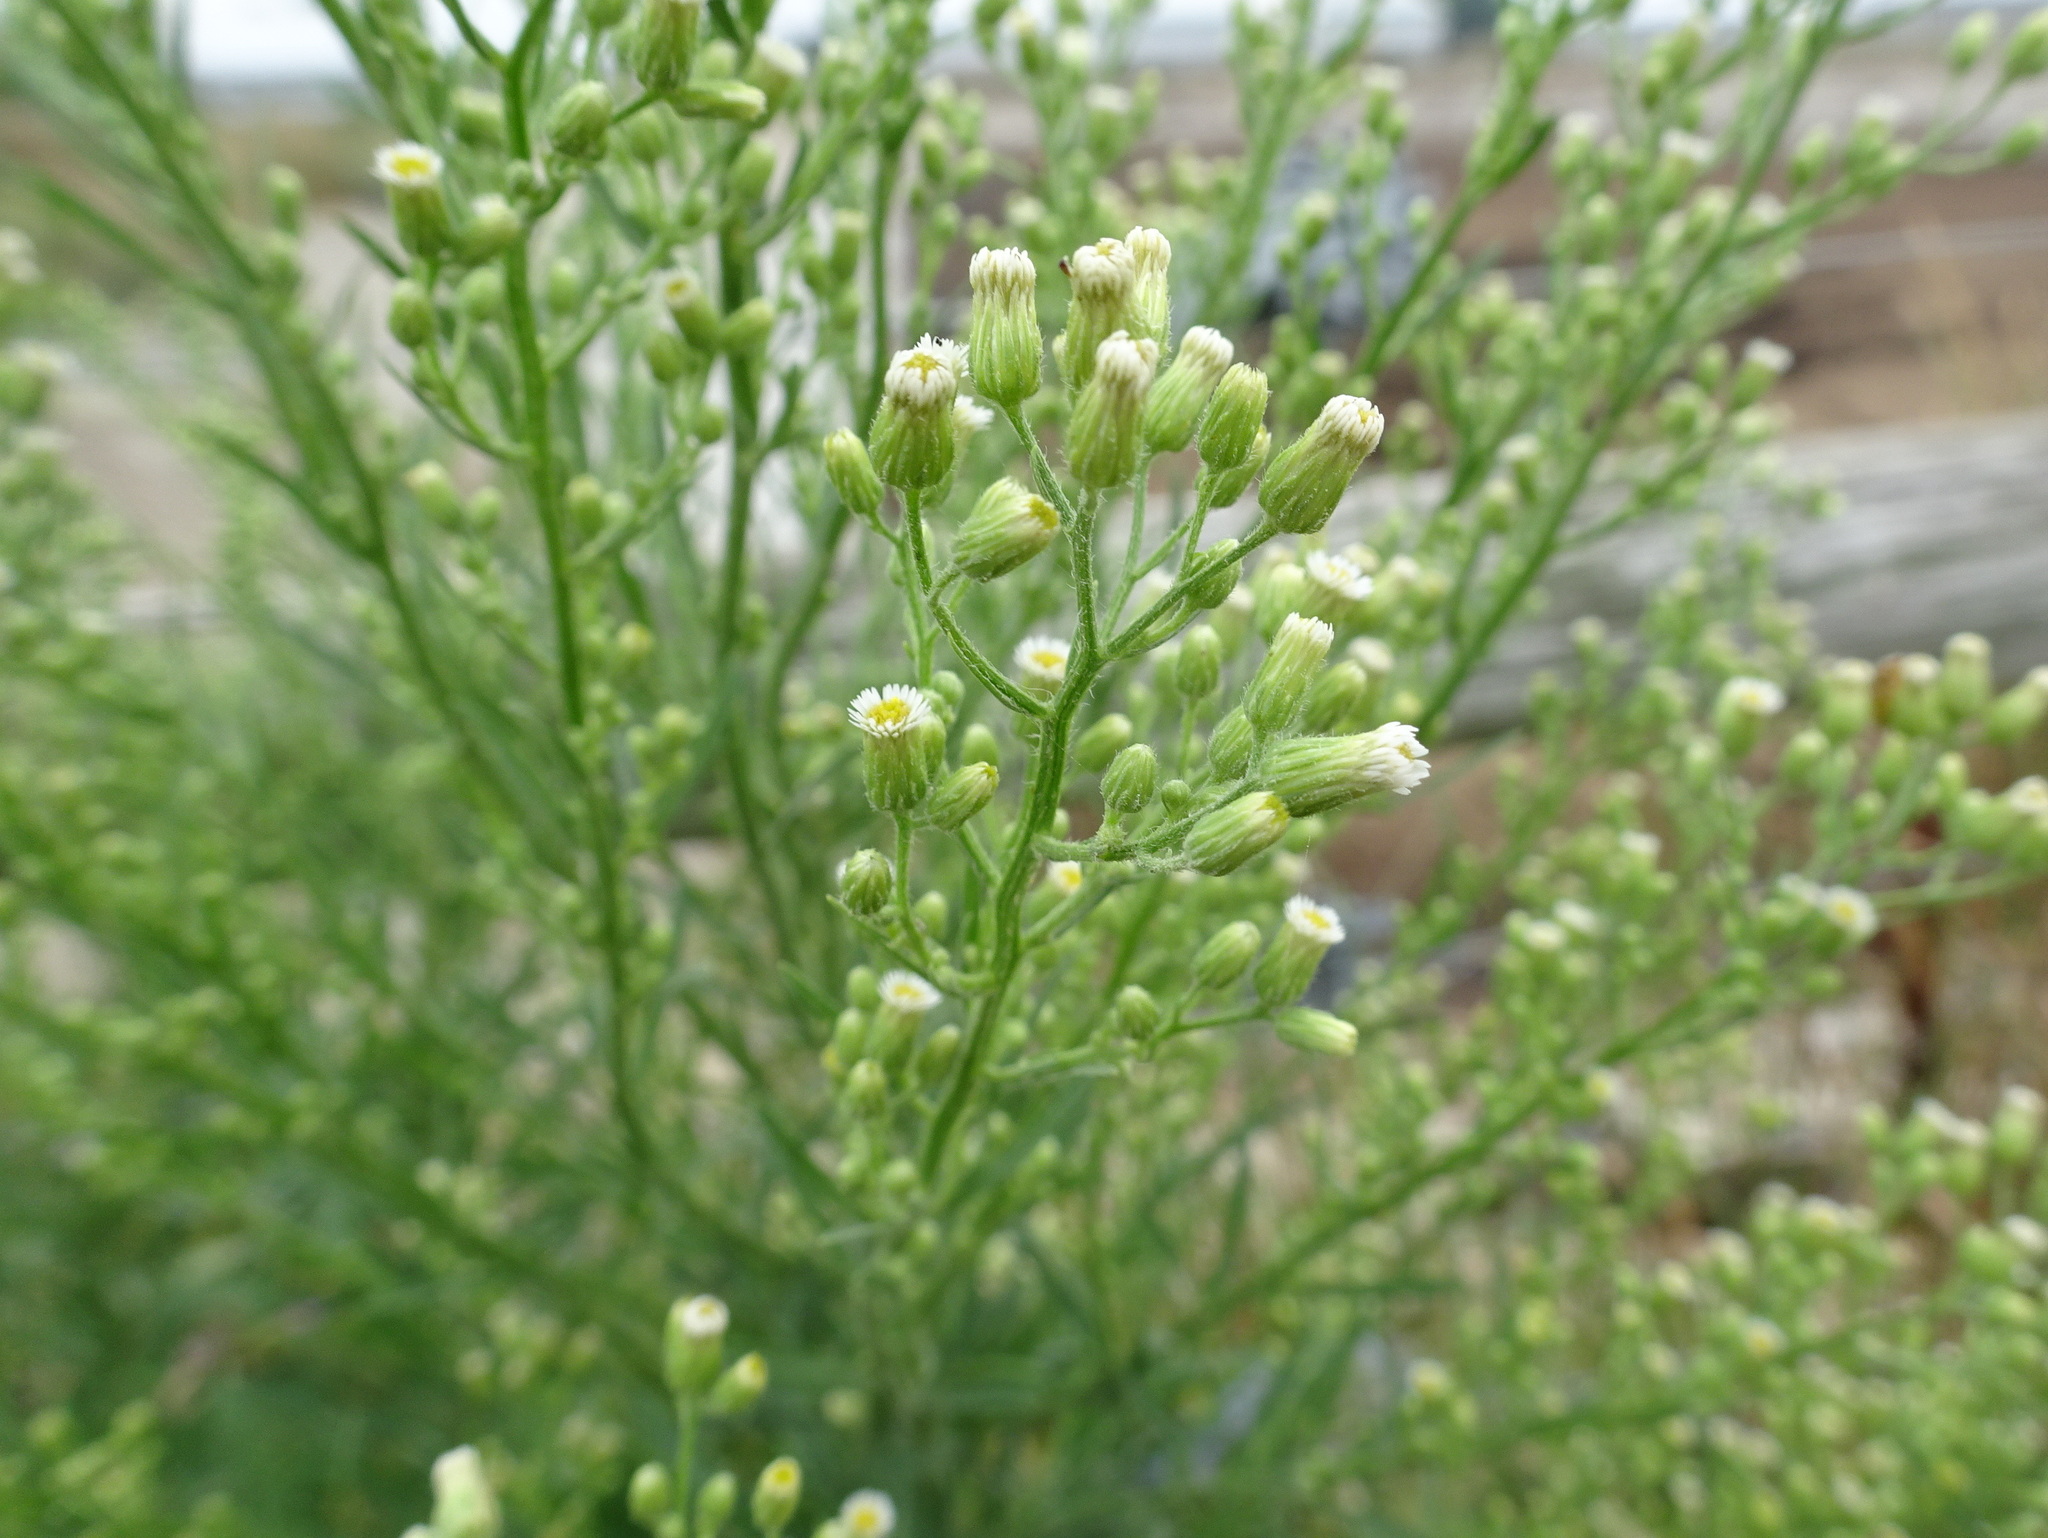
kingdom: Plantae
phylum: Tracheophyta
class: Magnoliopsida
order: Asterales
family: Asteraceae
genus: Erigeron
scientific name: Erigeron canadensis
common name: Canadian fleabane
